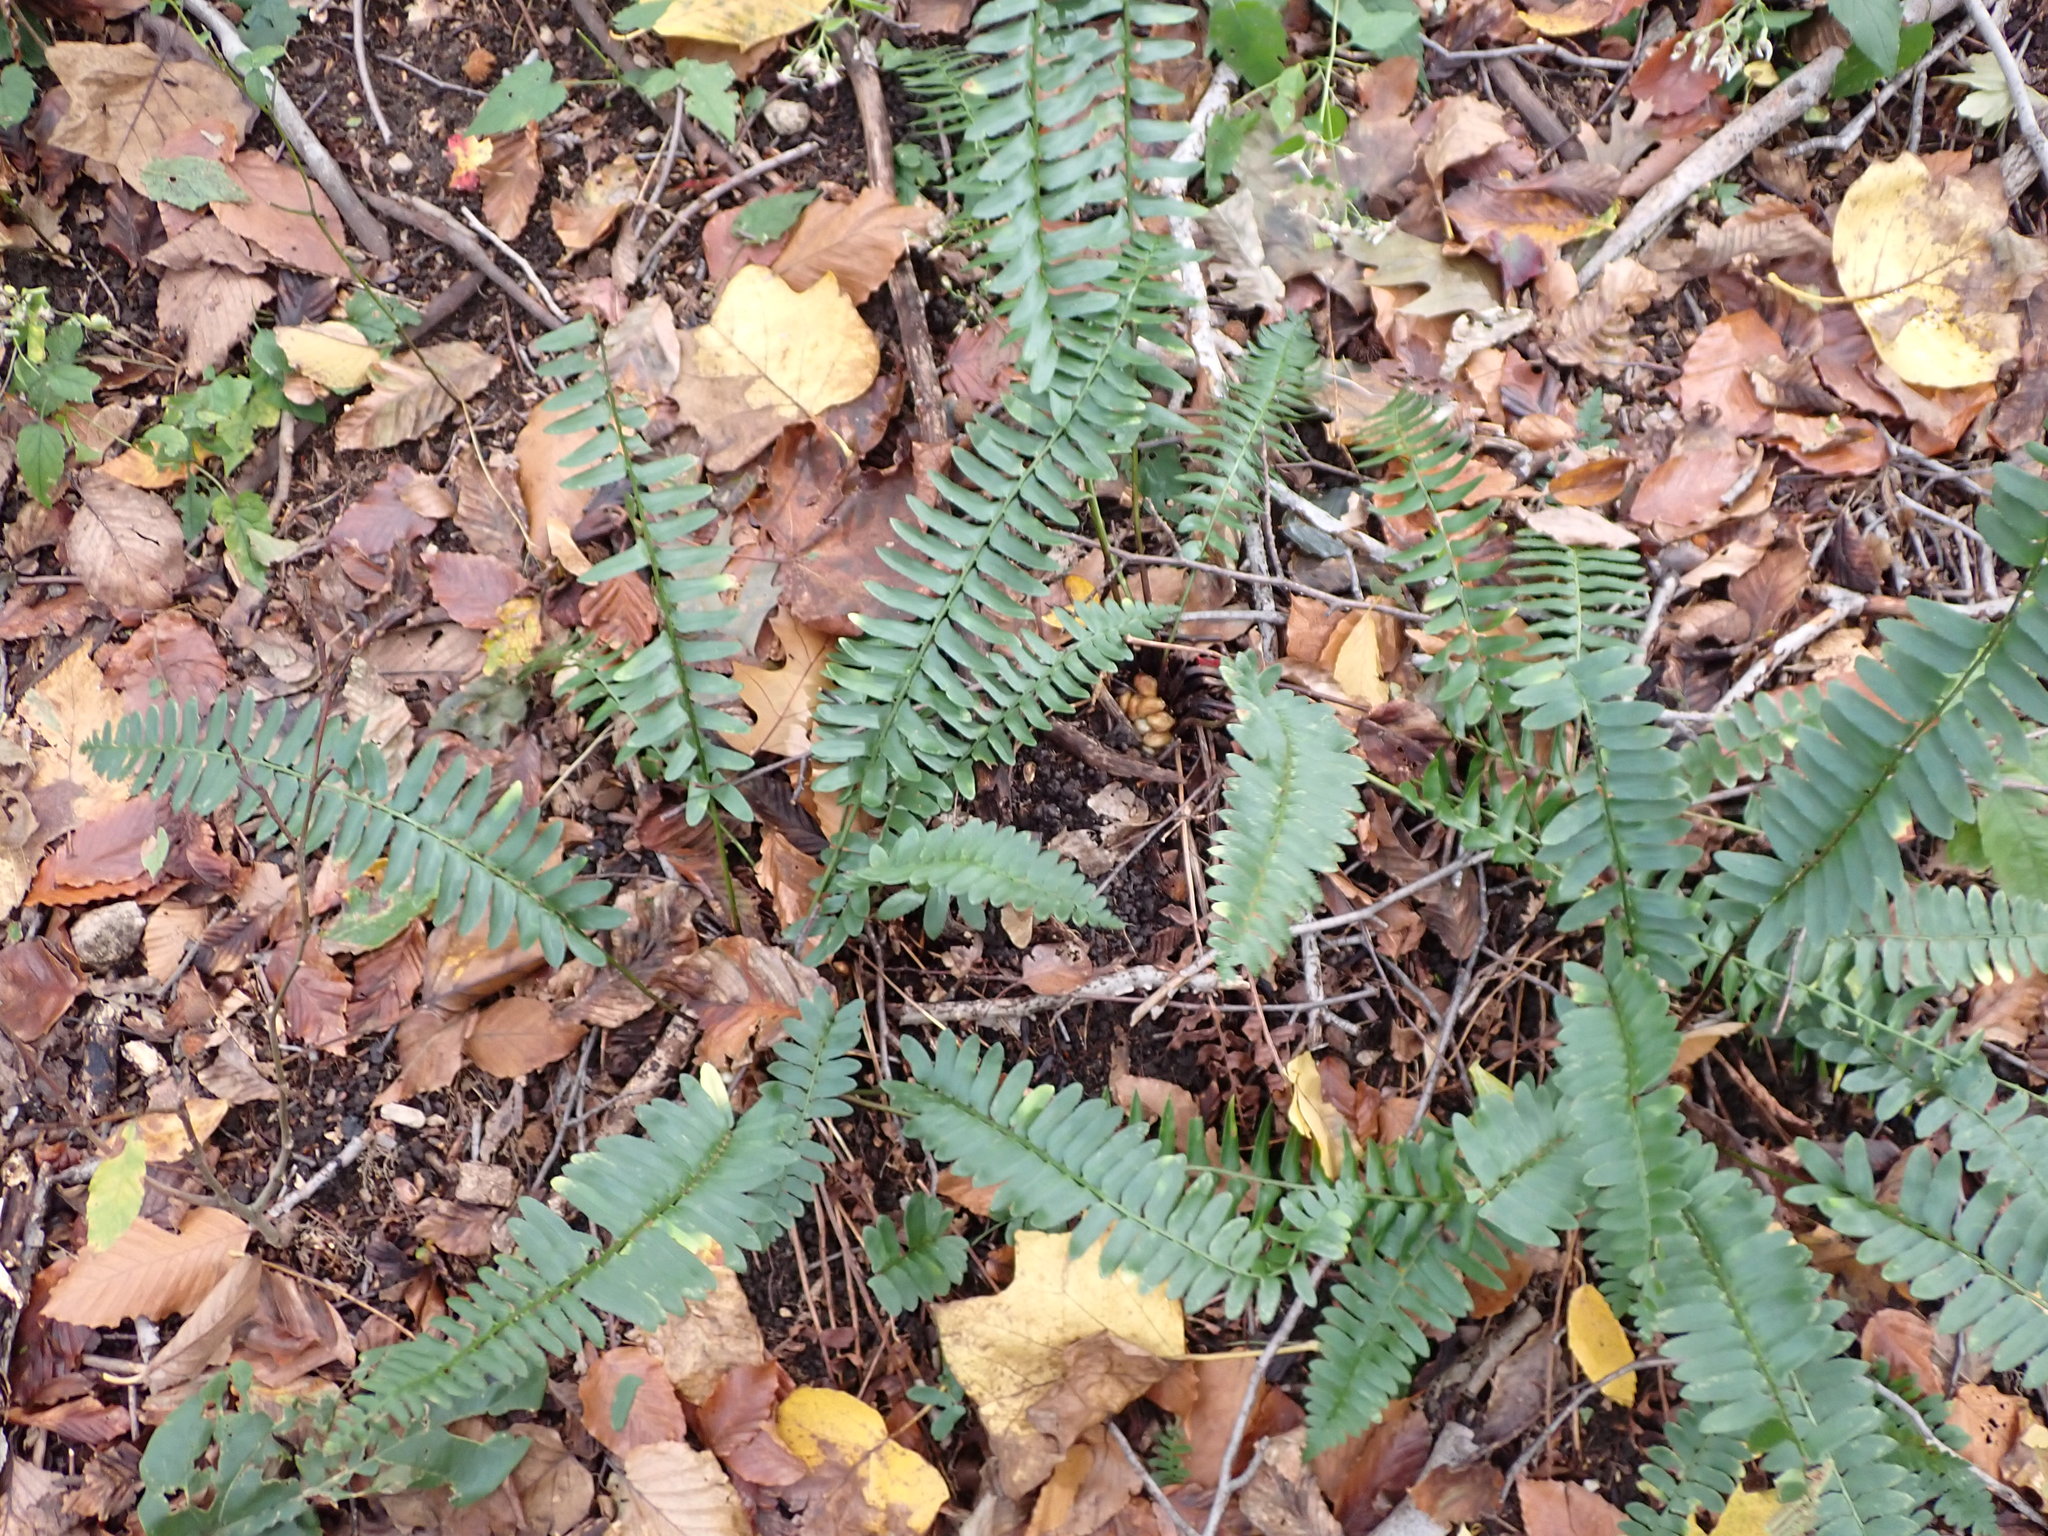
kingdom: Plantae
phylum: Tracheophyta
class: Polypodiopsida
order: Polypodiales
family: Dryopteridaceae
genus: Polystichum
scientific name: Polystichum acrostichoides
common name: Christmas fern
